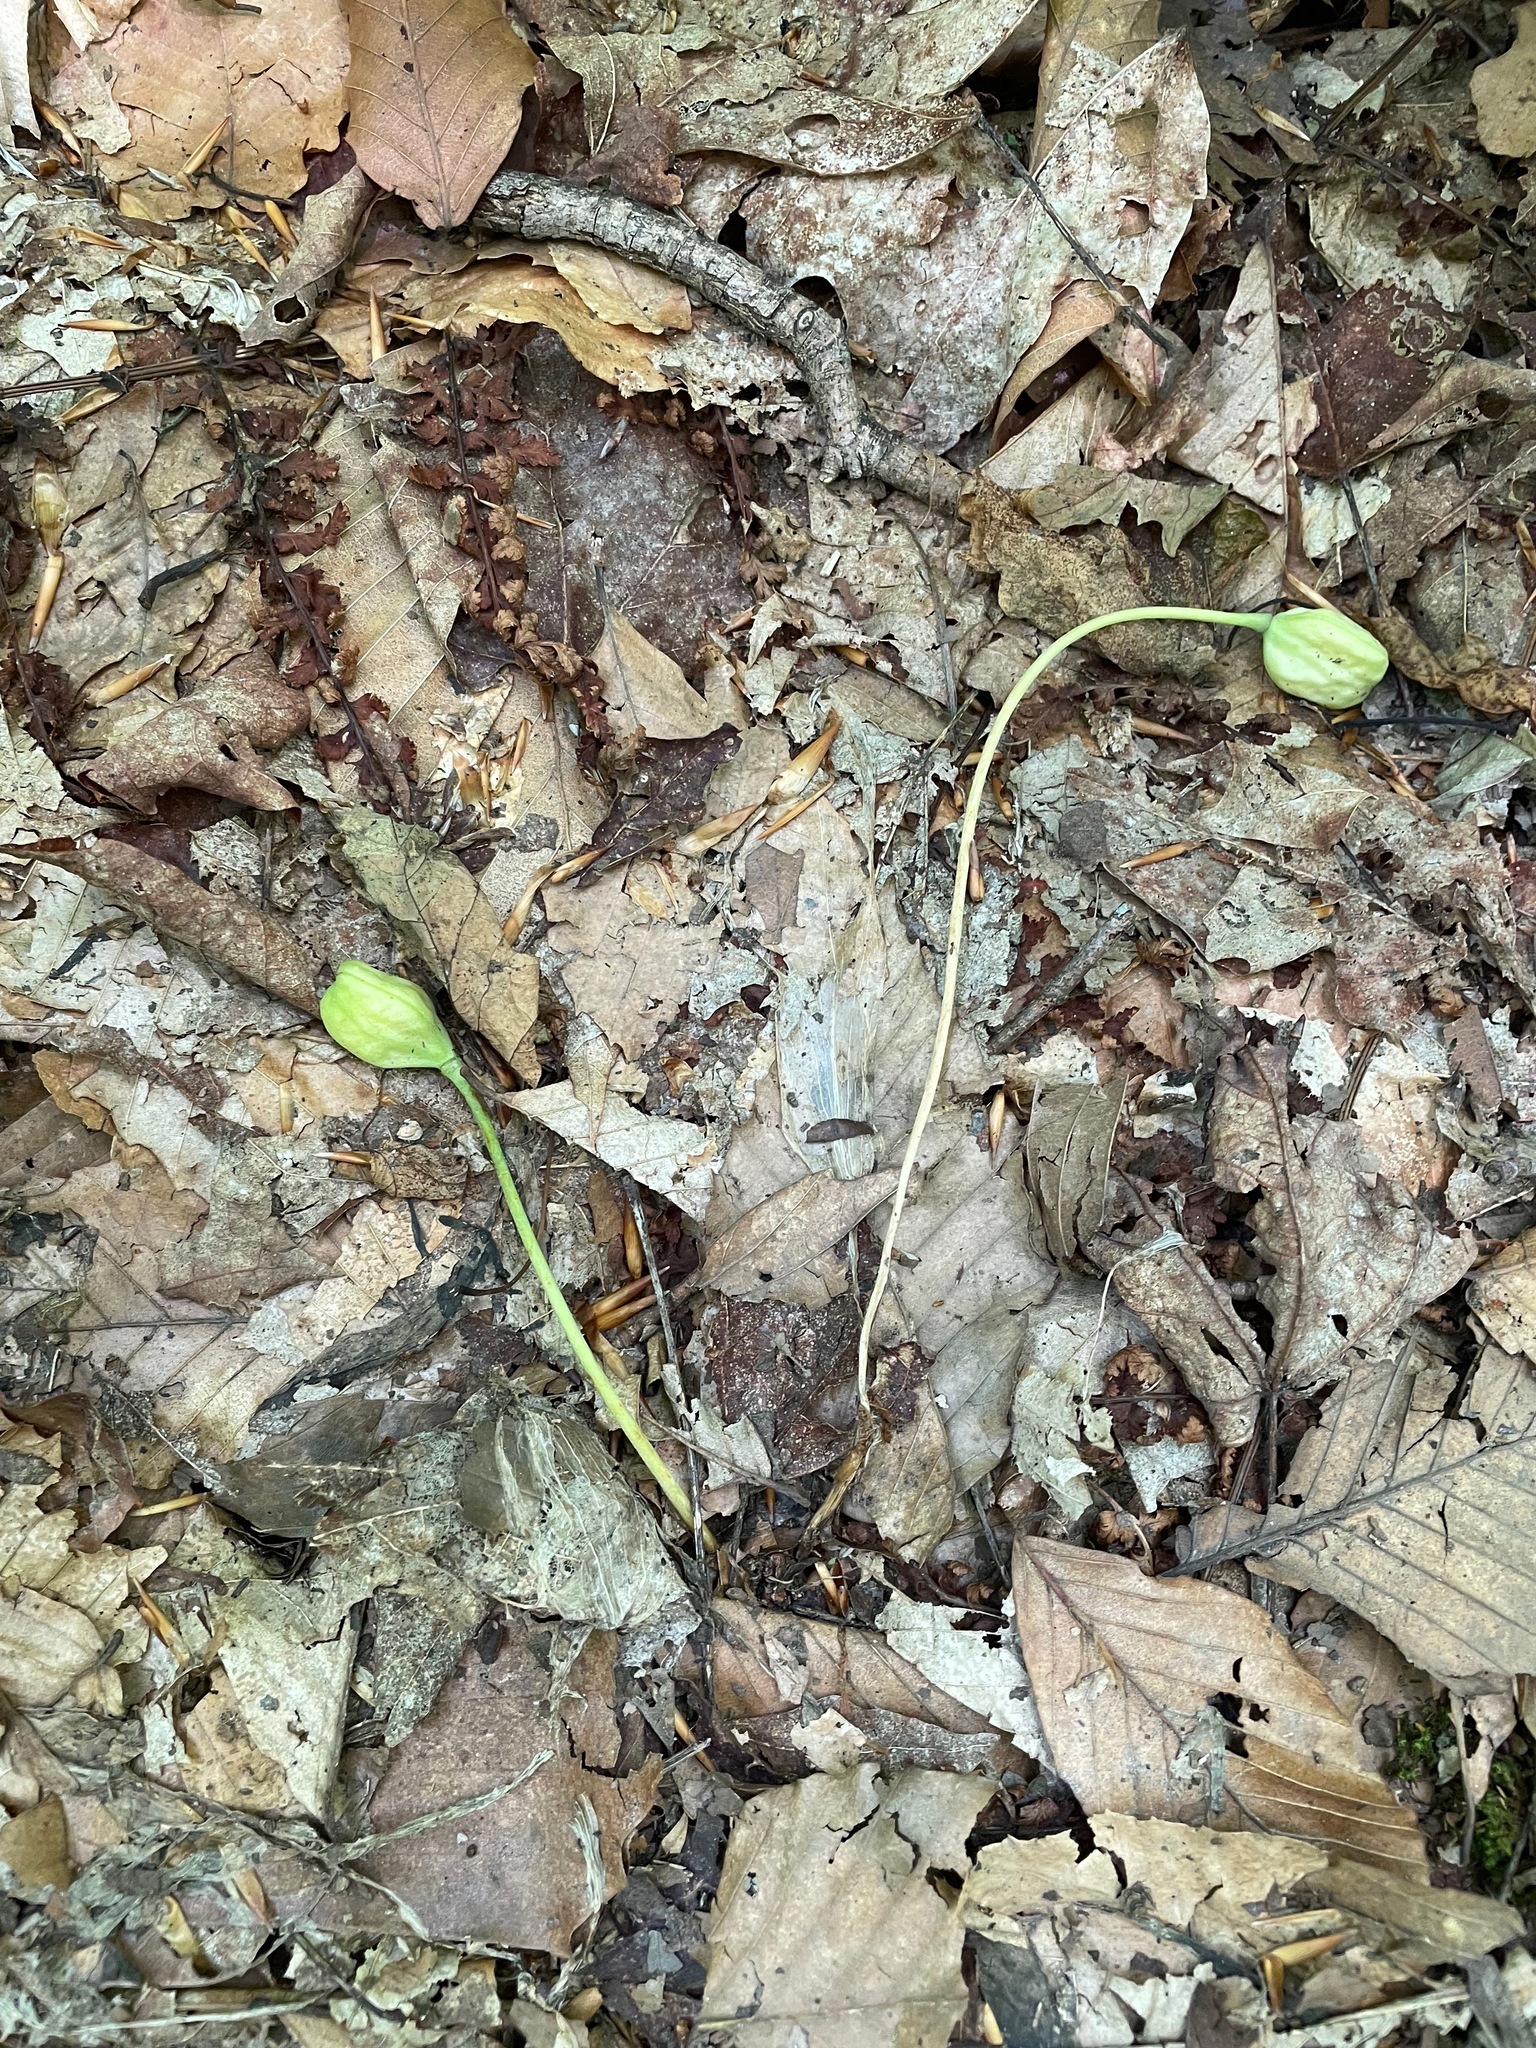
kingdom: Plantae
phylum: Tracheophyta
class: Liliopsida
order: Liliales
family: Liliaceae
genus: Erythronium
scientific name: Erythronium americanum
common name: Yellow adder's-tongue
